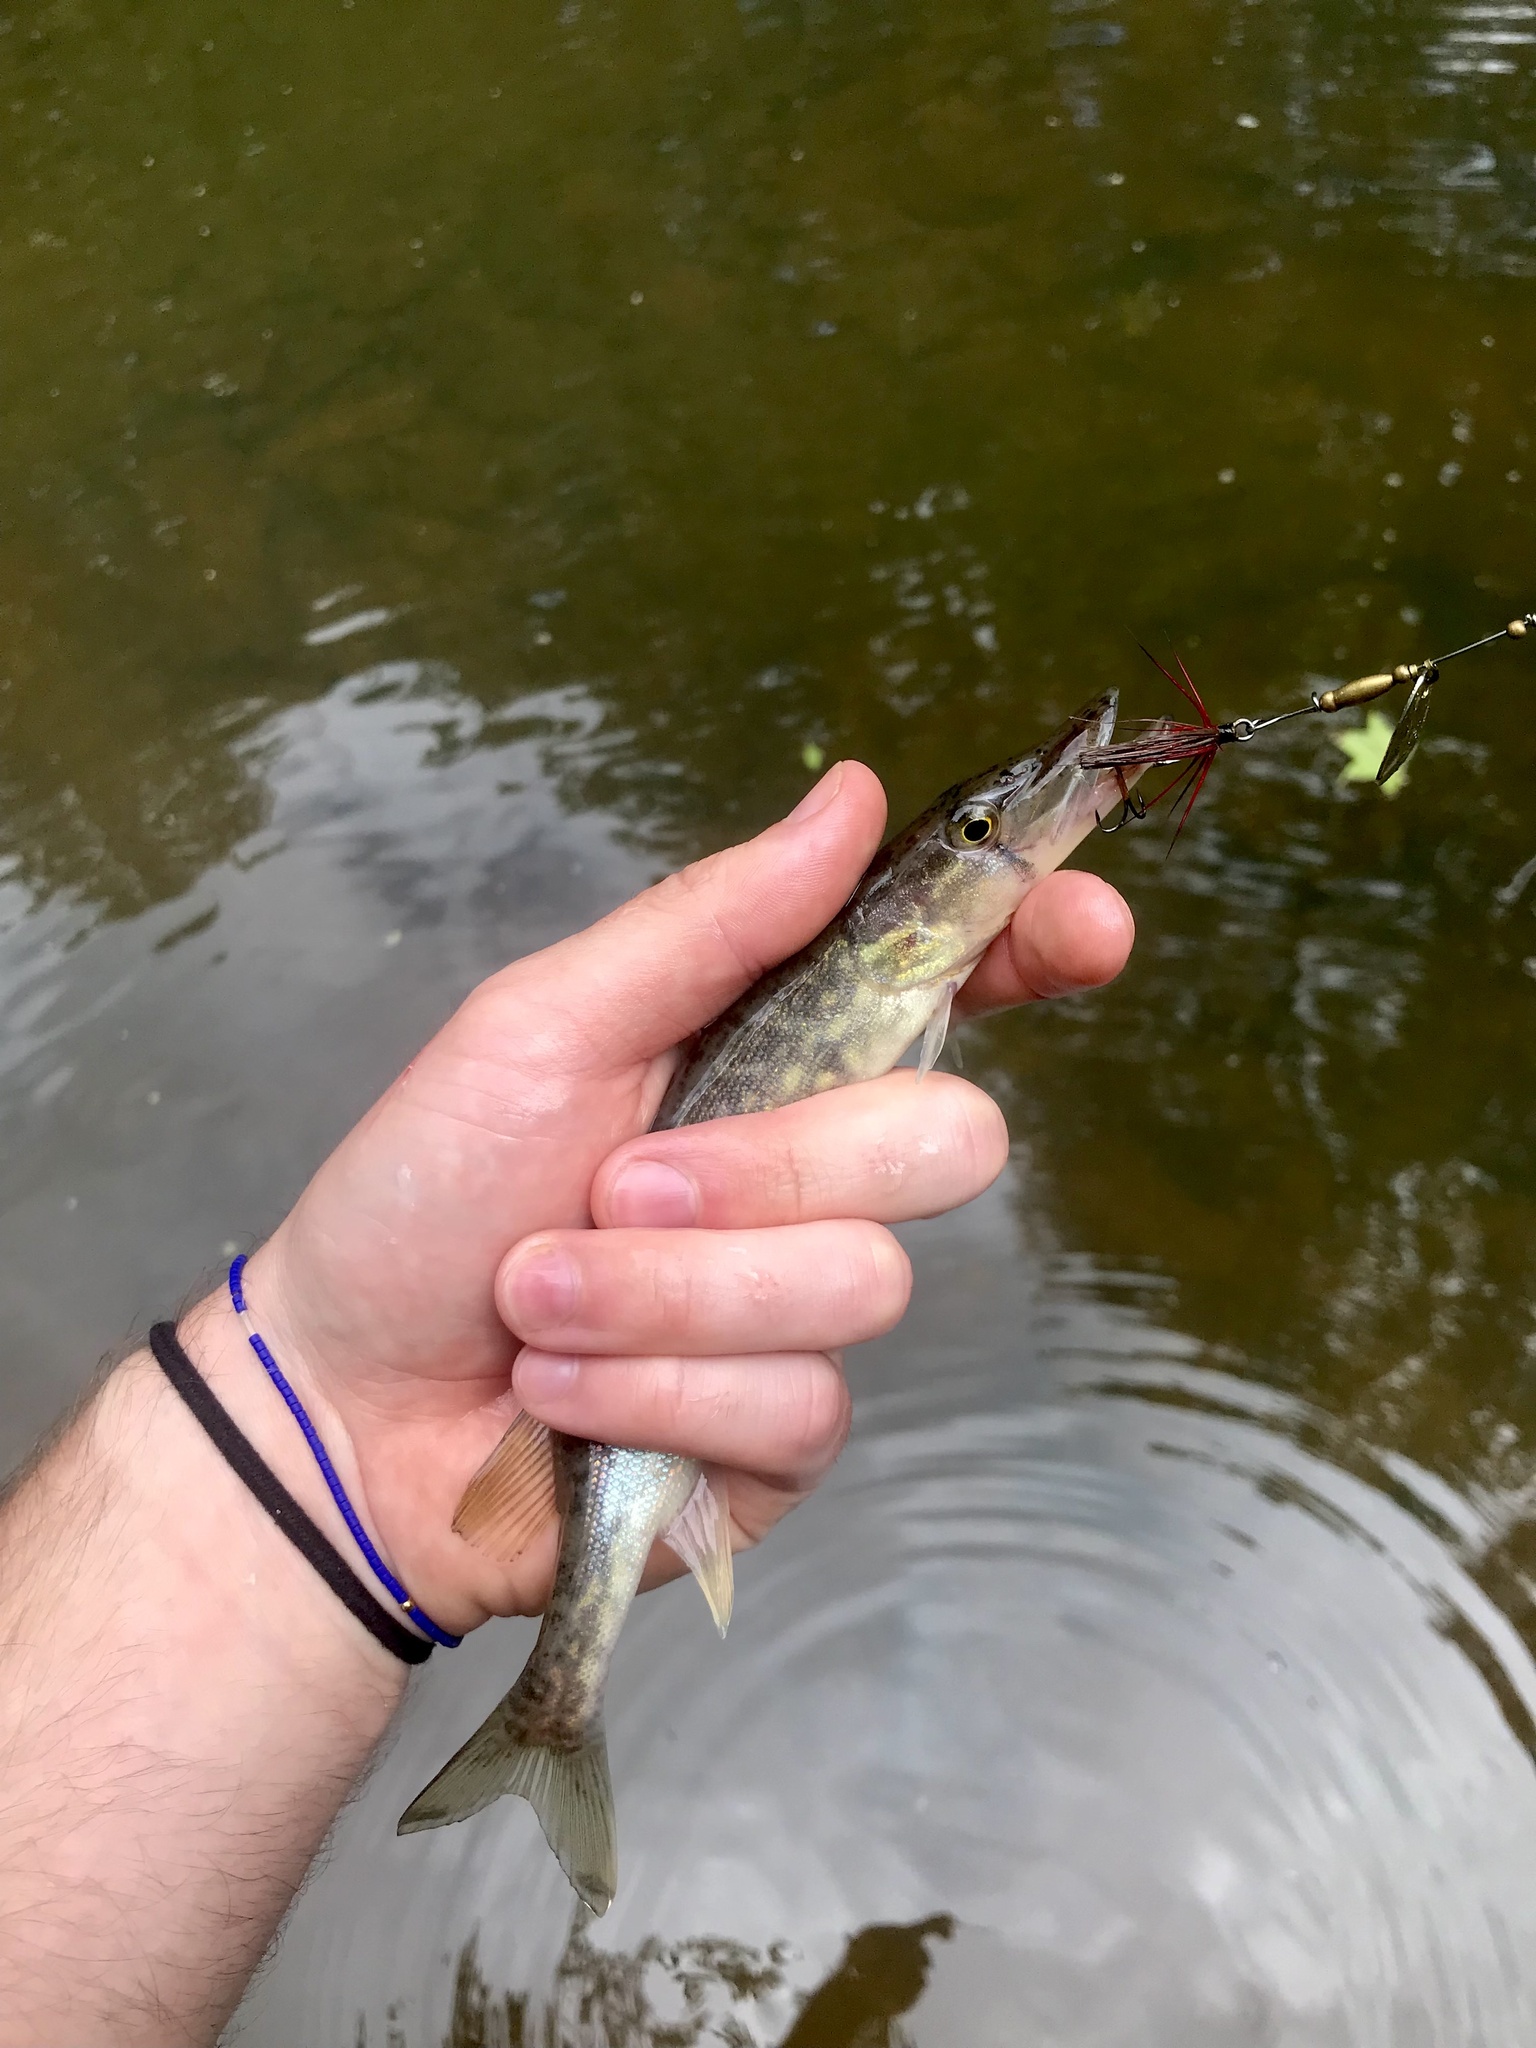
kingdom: Animalia
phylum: Chordata
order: Esociformes
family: Esocidae
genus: Esox
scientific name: Esox niger
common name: Chain pickerel
